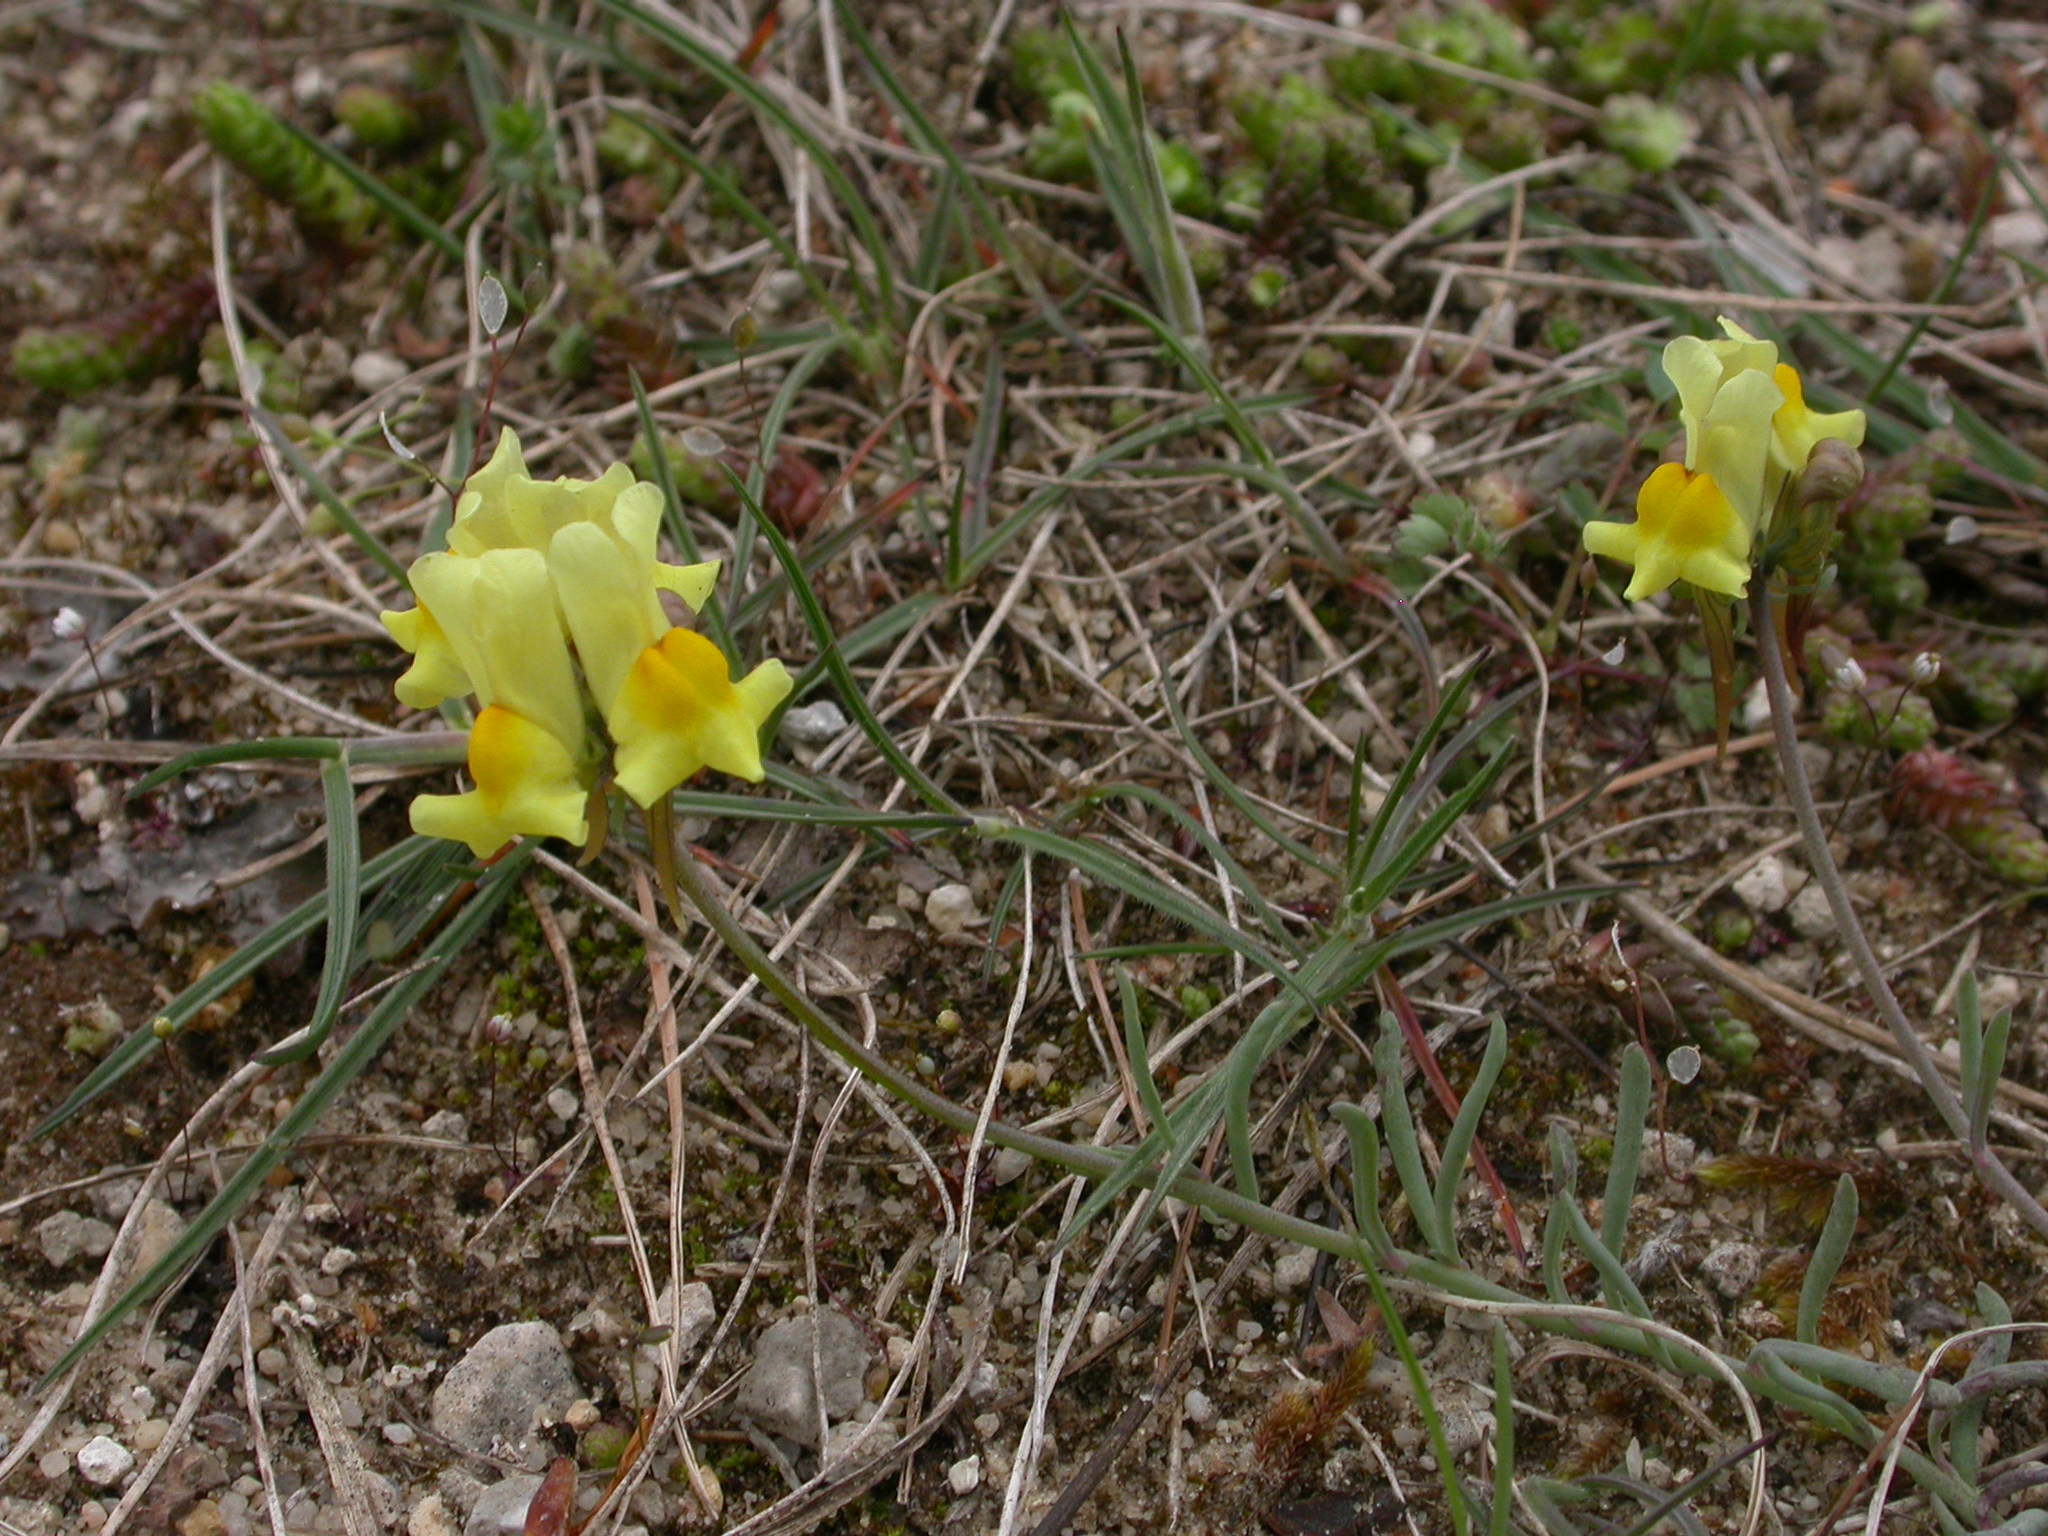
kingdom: Plantae
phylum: Tracheophyta
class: Magnoliopsida
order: Lamiales
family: Plantaginaceae
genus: Linaria
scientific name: Linaria supina
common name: Prostrate toadflax
